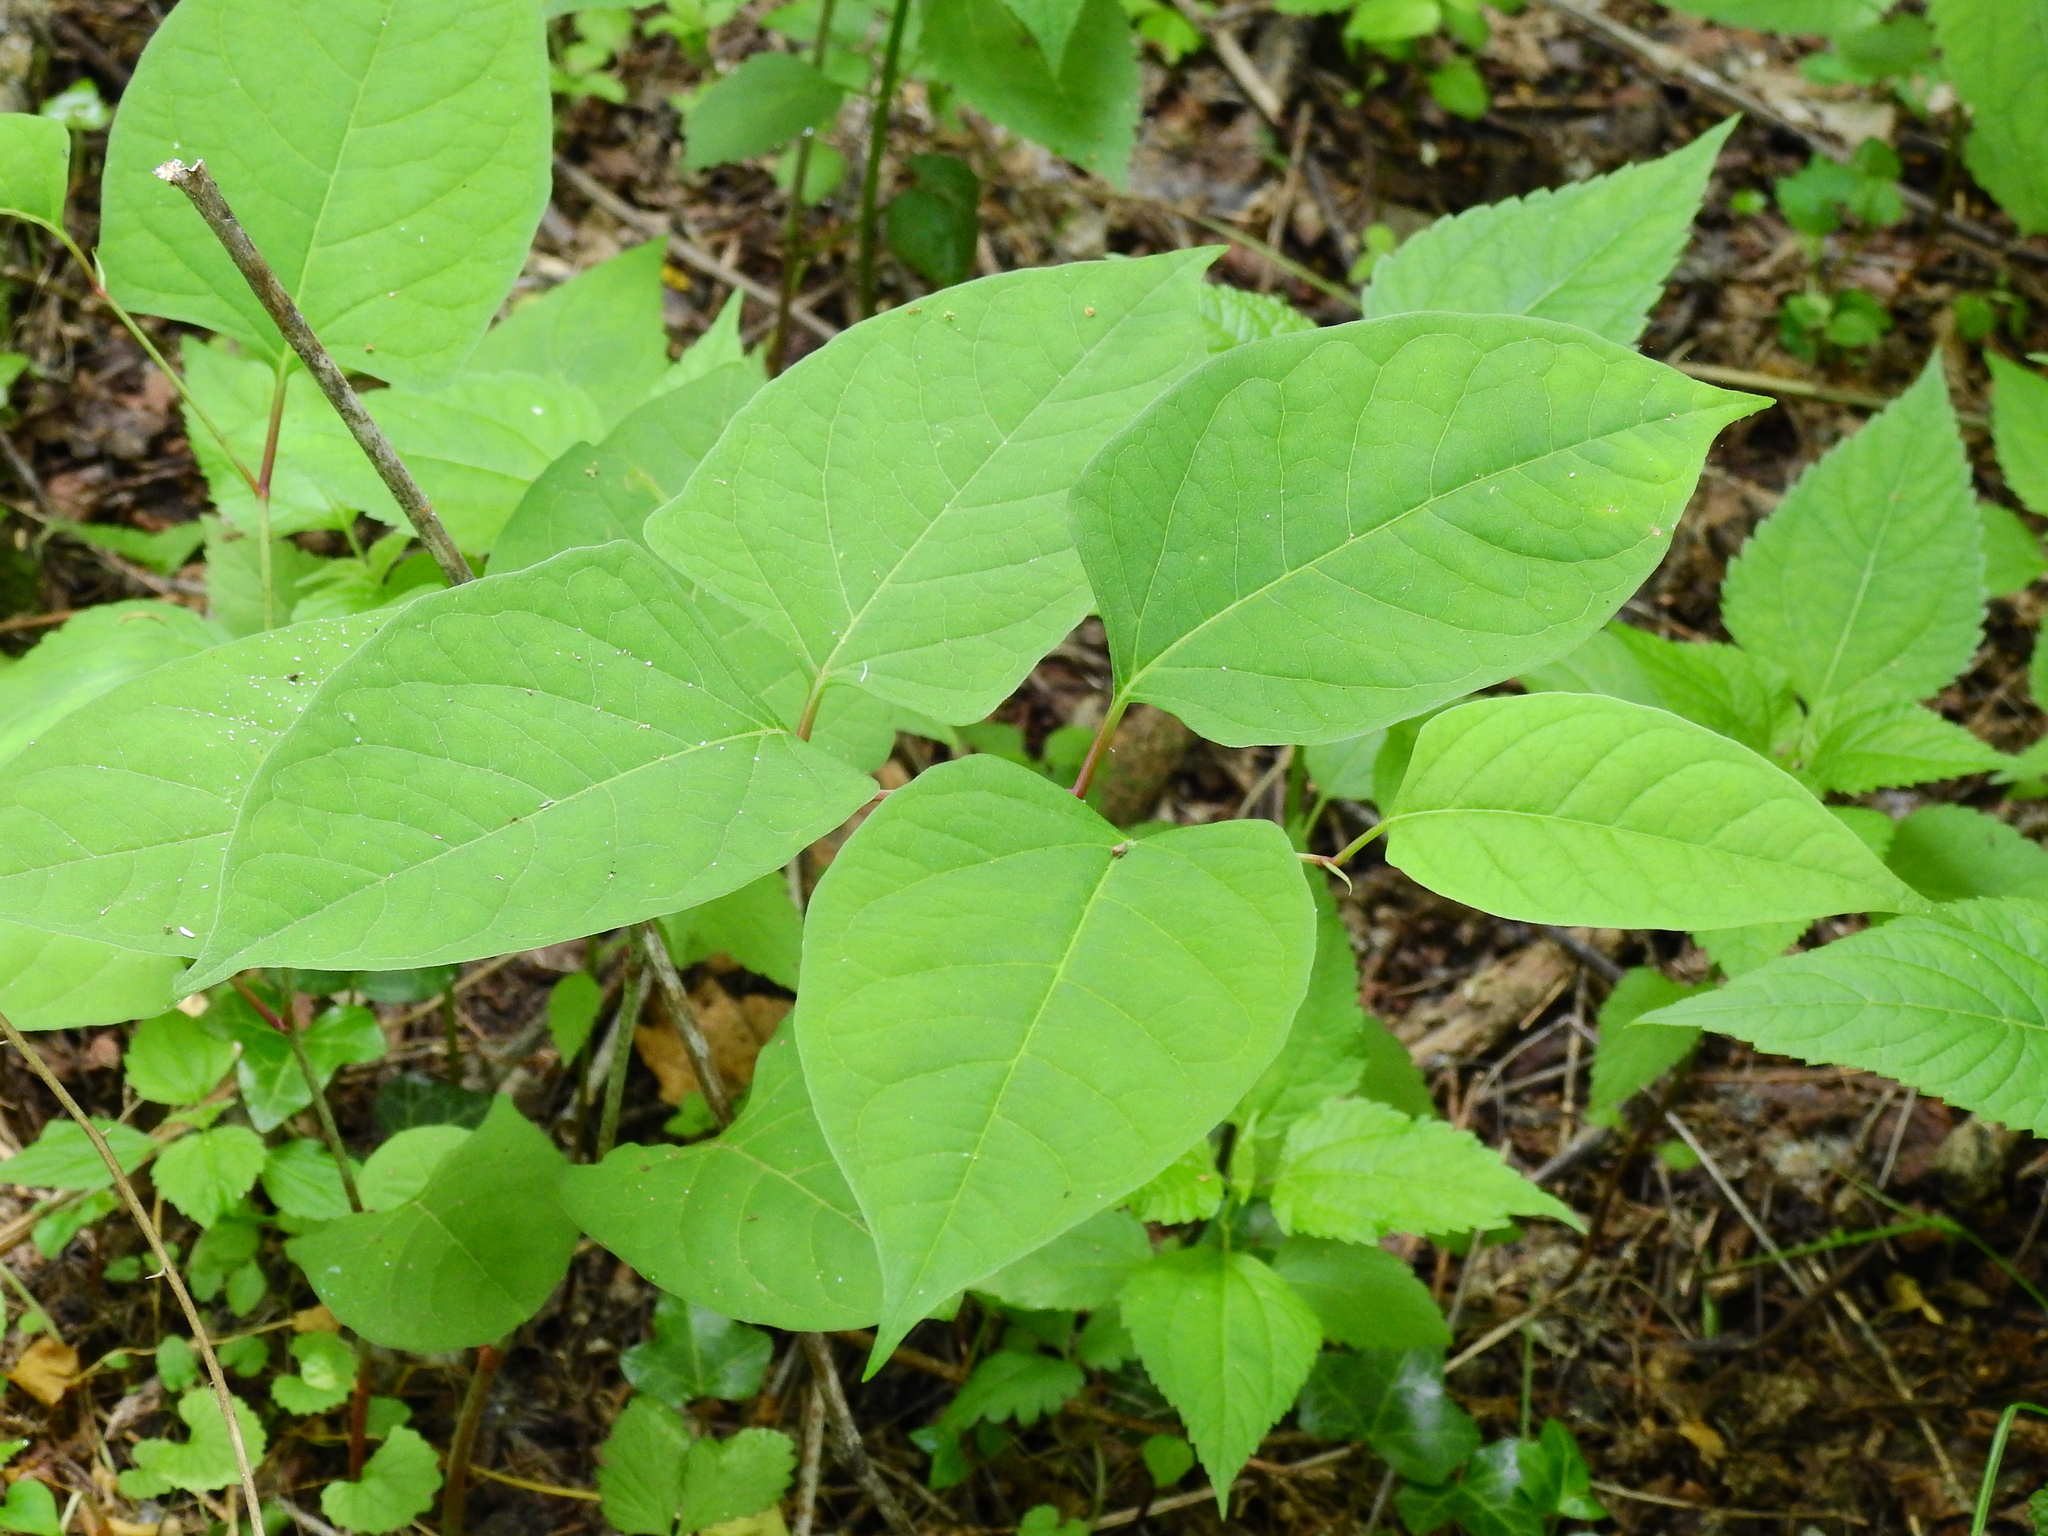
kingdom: Plantae
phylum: Tracheophyta
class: Magnoliopsida
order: Caryophyllales
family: Polygonaceae
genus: Reynoutria
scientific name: Reynoutria japonica
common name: Japanese knotweed
